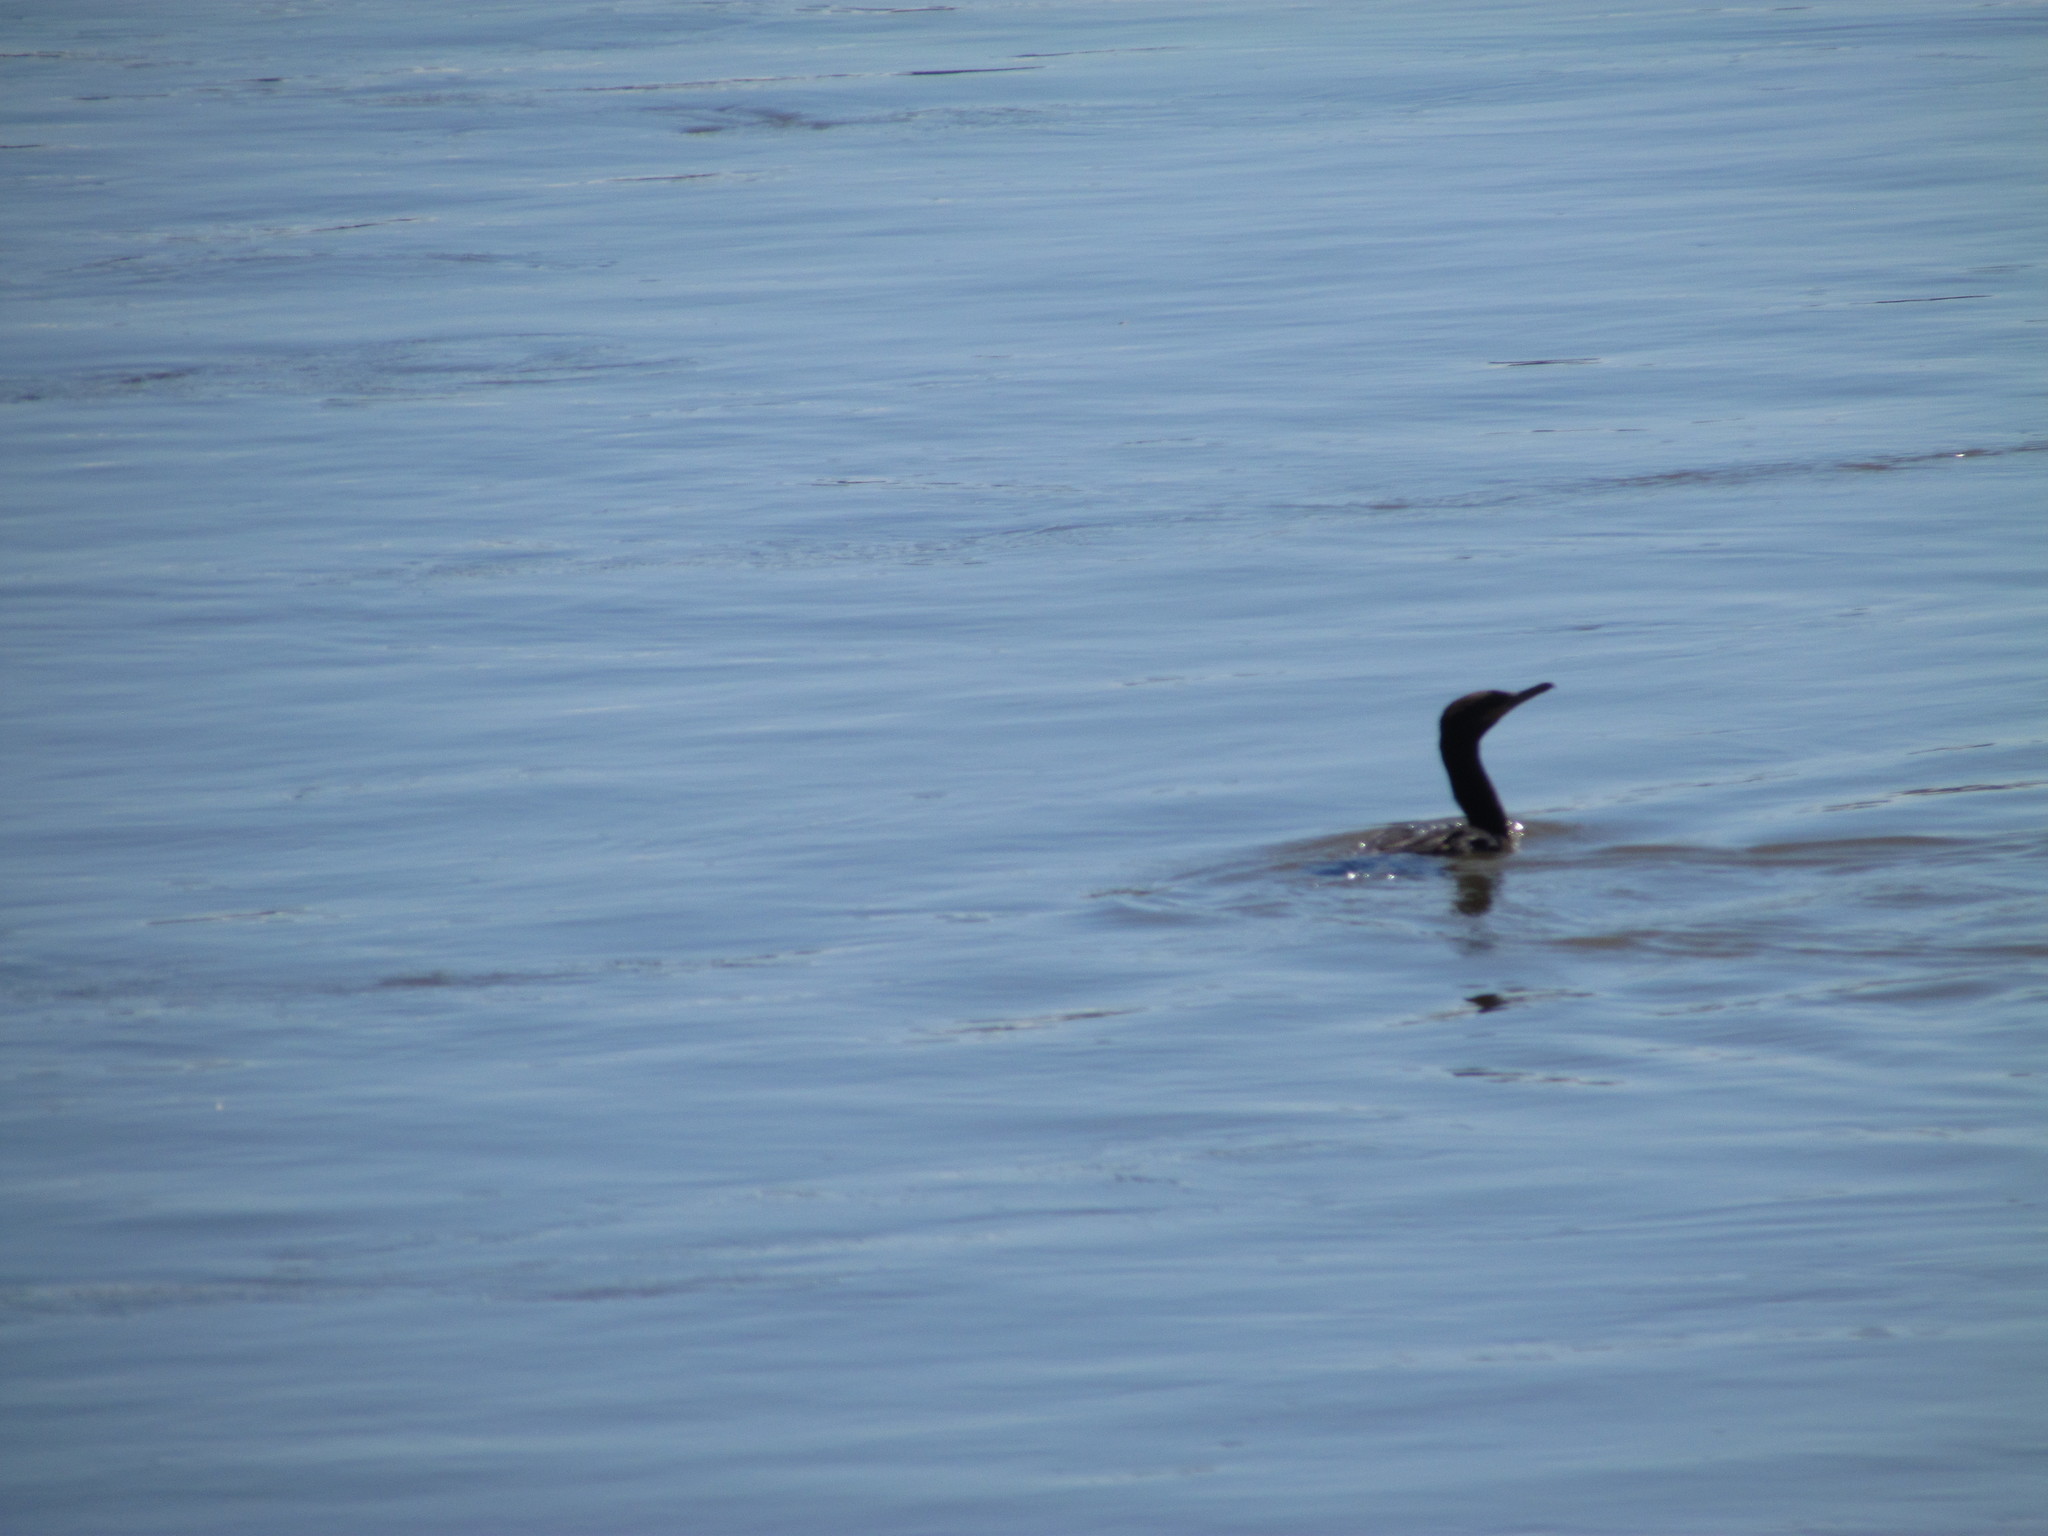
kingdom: Animalia
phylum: Chordata
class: Aves
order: Suliformes
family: Phalacrocoracidae
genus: Phalacrocorax
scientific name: Phalacrocorax brasilianus
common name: Neotropic cormorant
